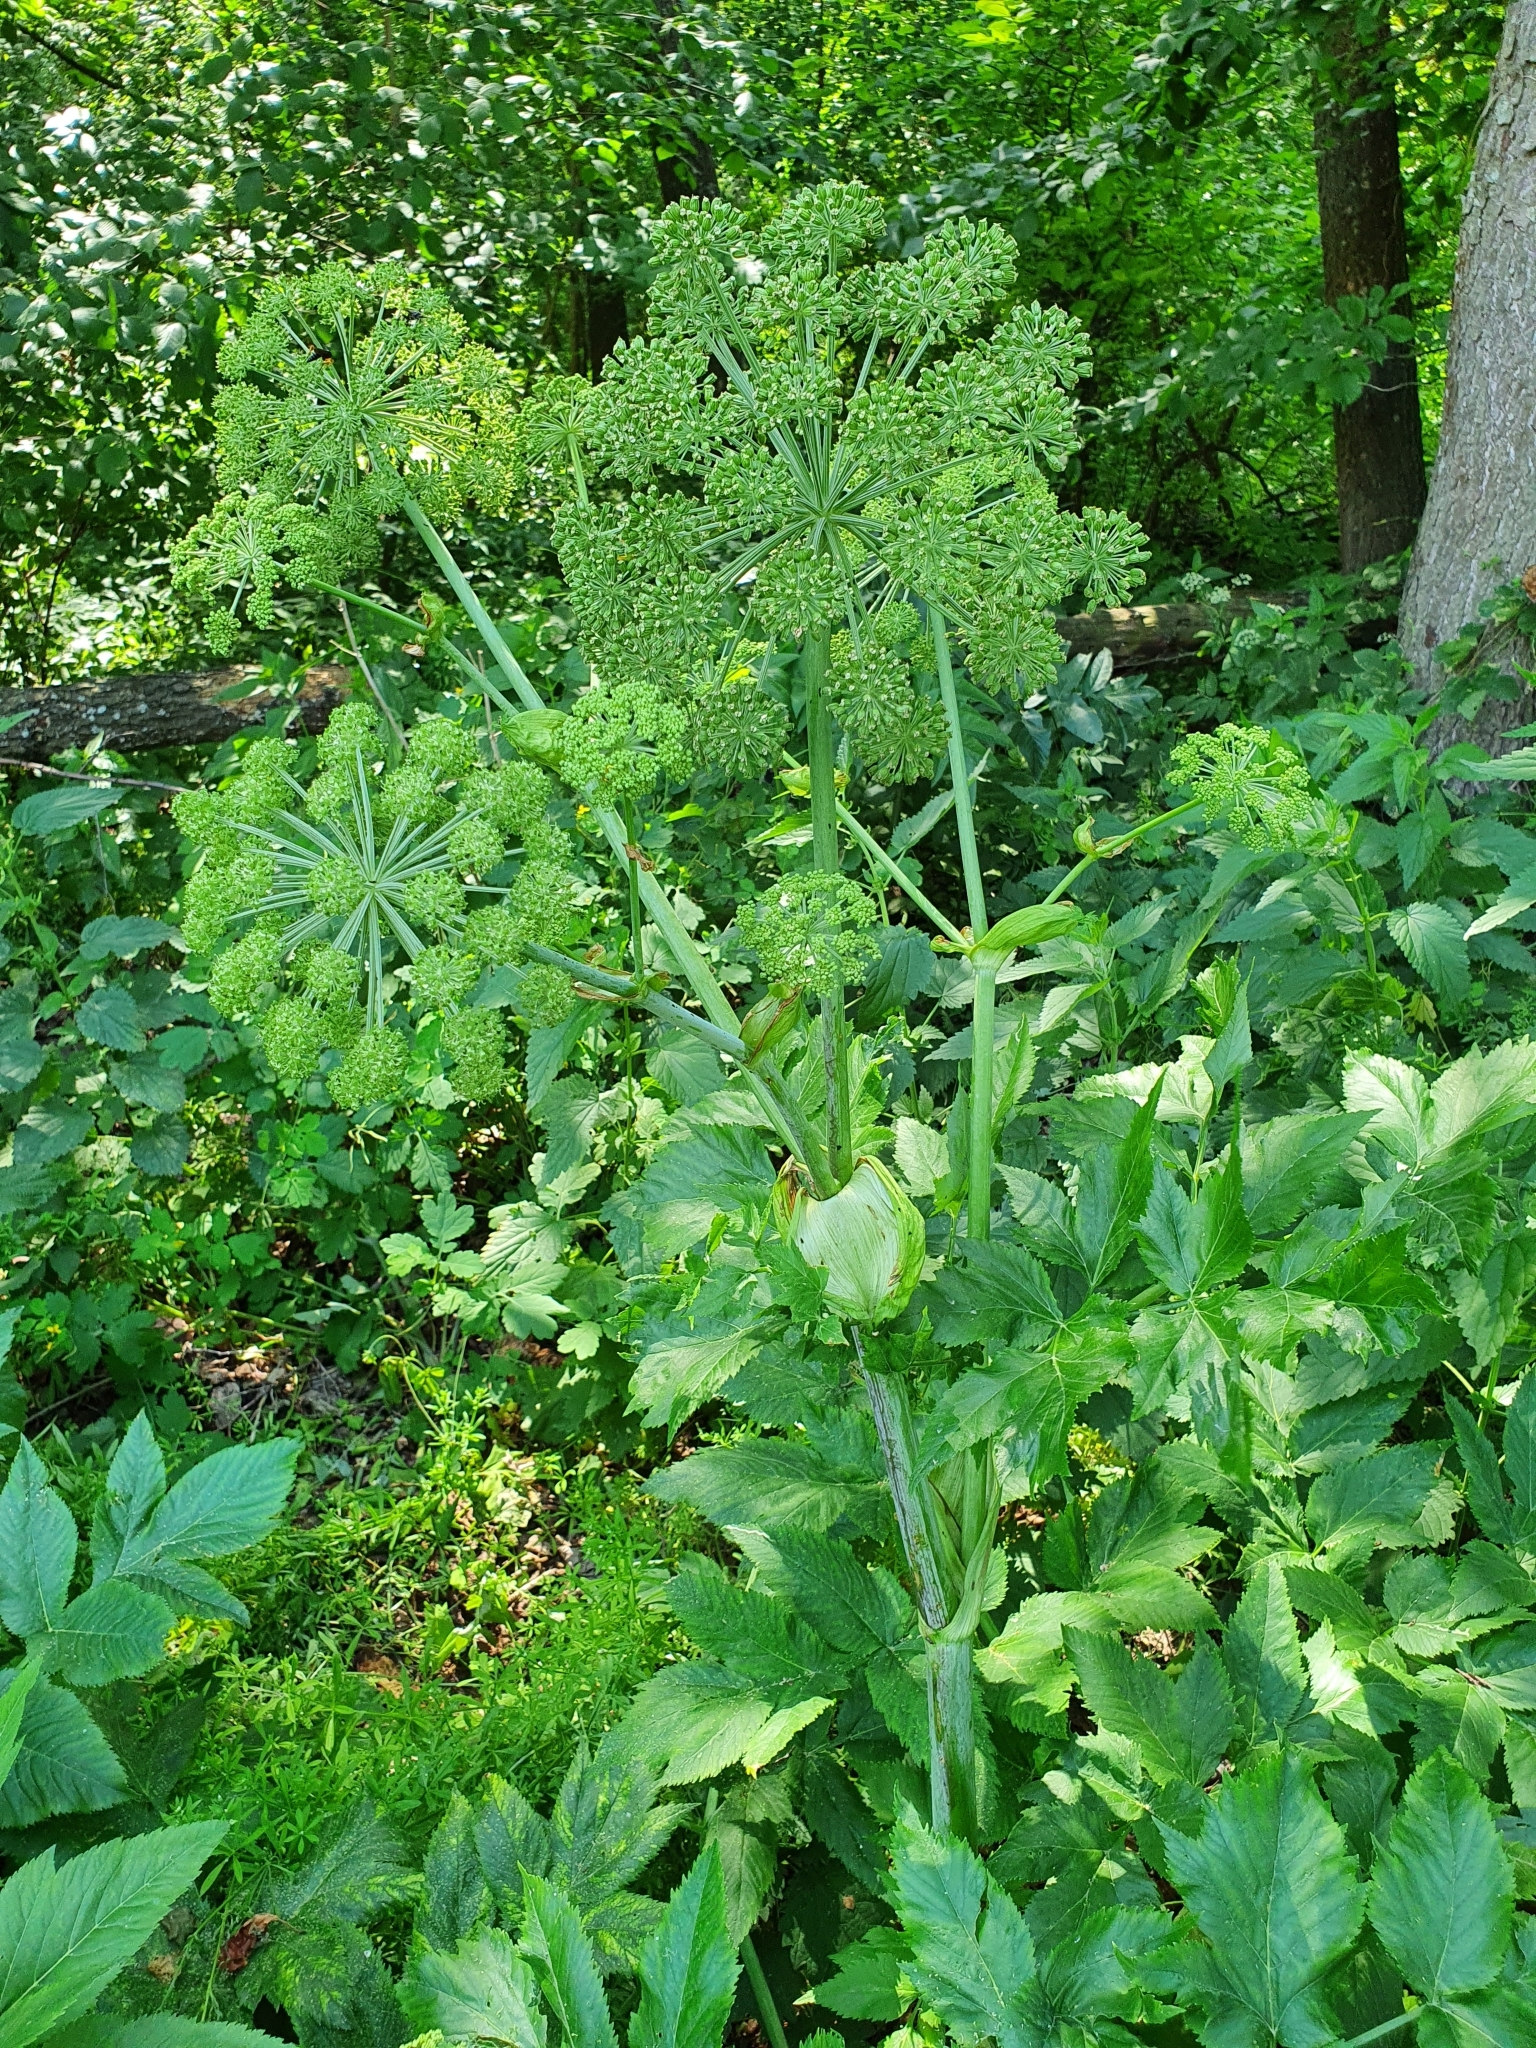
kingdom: Plantae
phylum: Tracheophyta
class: Magnoliopsida
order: Apiales
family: Apiaceae
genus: Angelica
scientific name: Angelica archangelica
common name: Garden angelica
